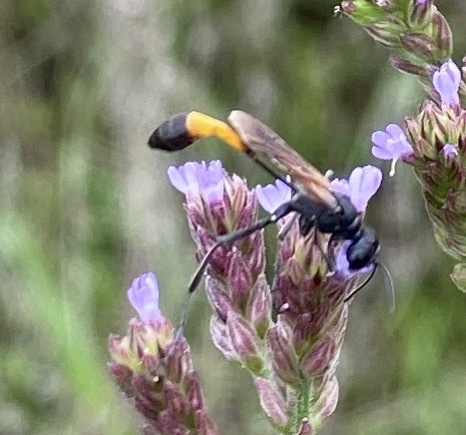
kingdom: Animalia
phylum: Arthropoda
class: Insecta
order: Hymenoptera
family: Sphecidae
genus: Ammophila
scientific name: Ammophila pictipennis
